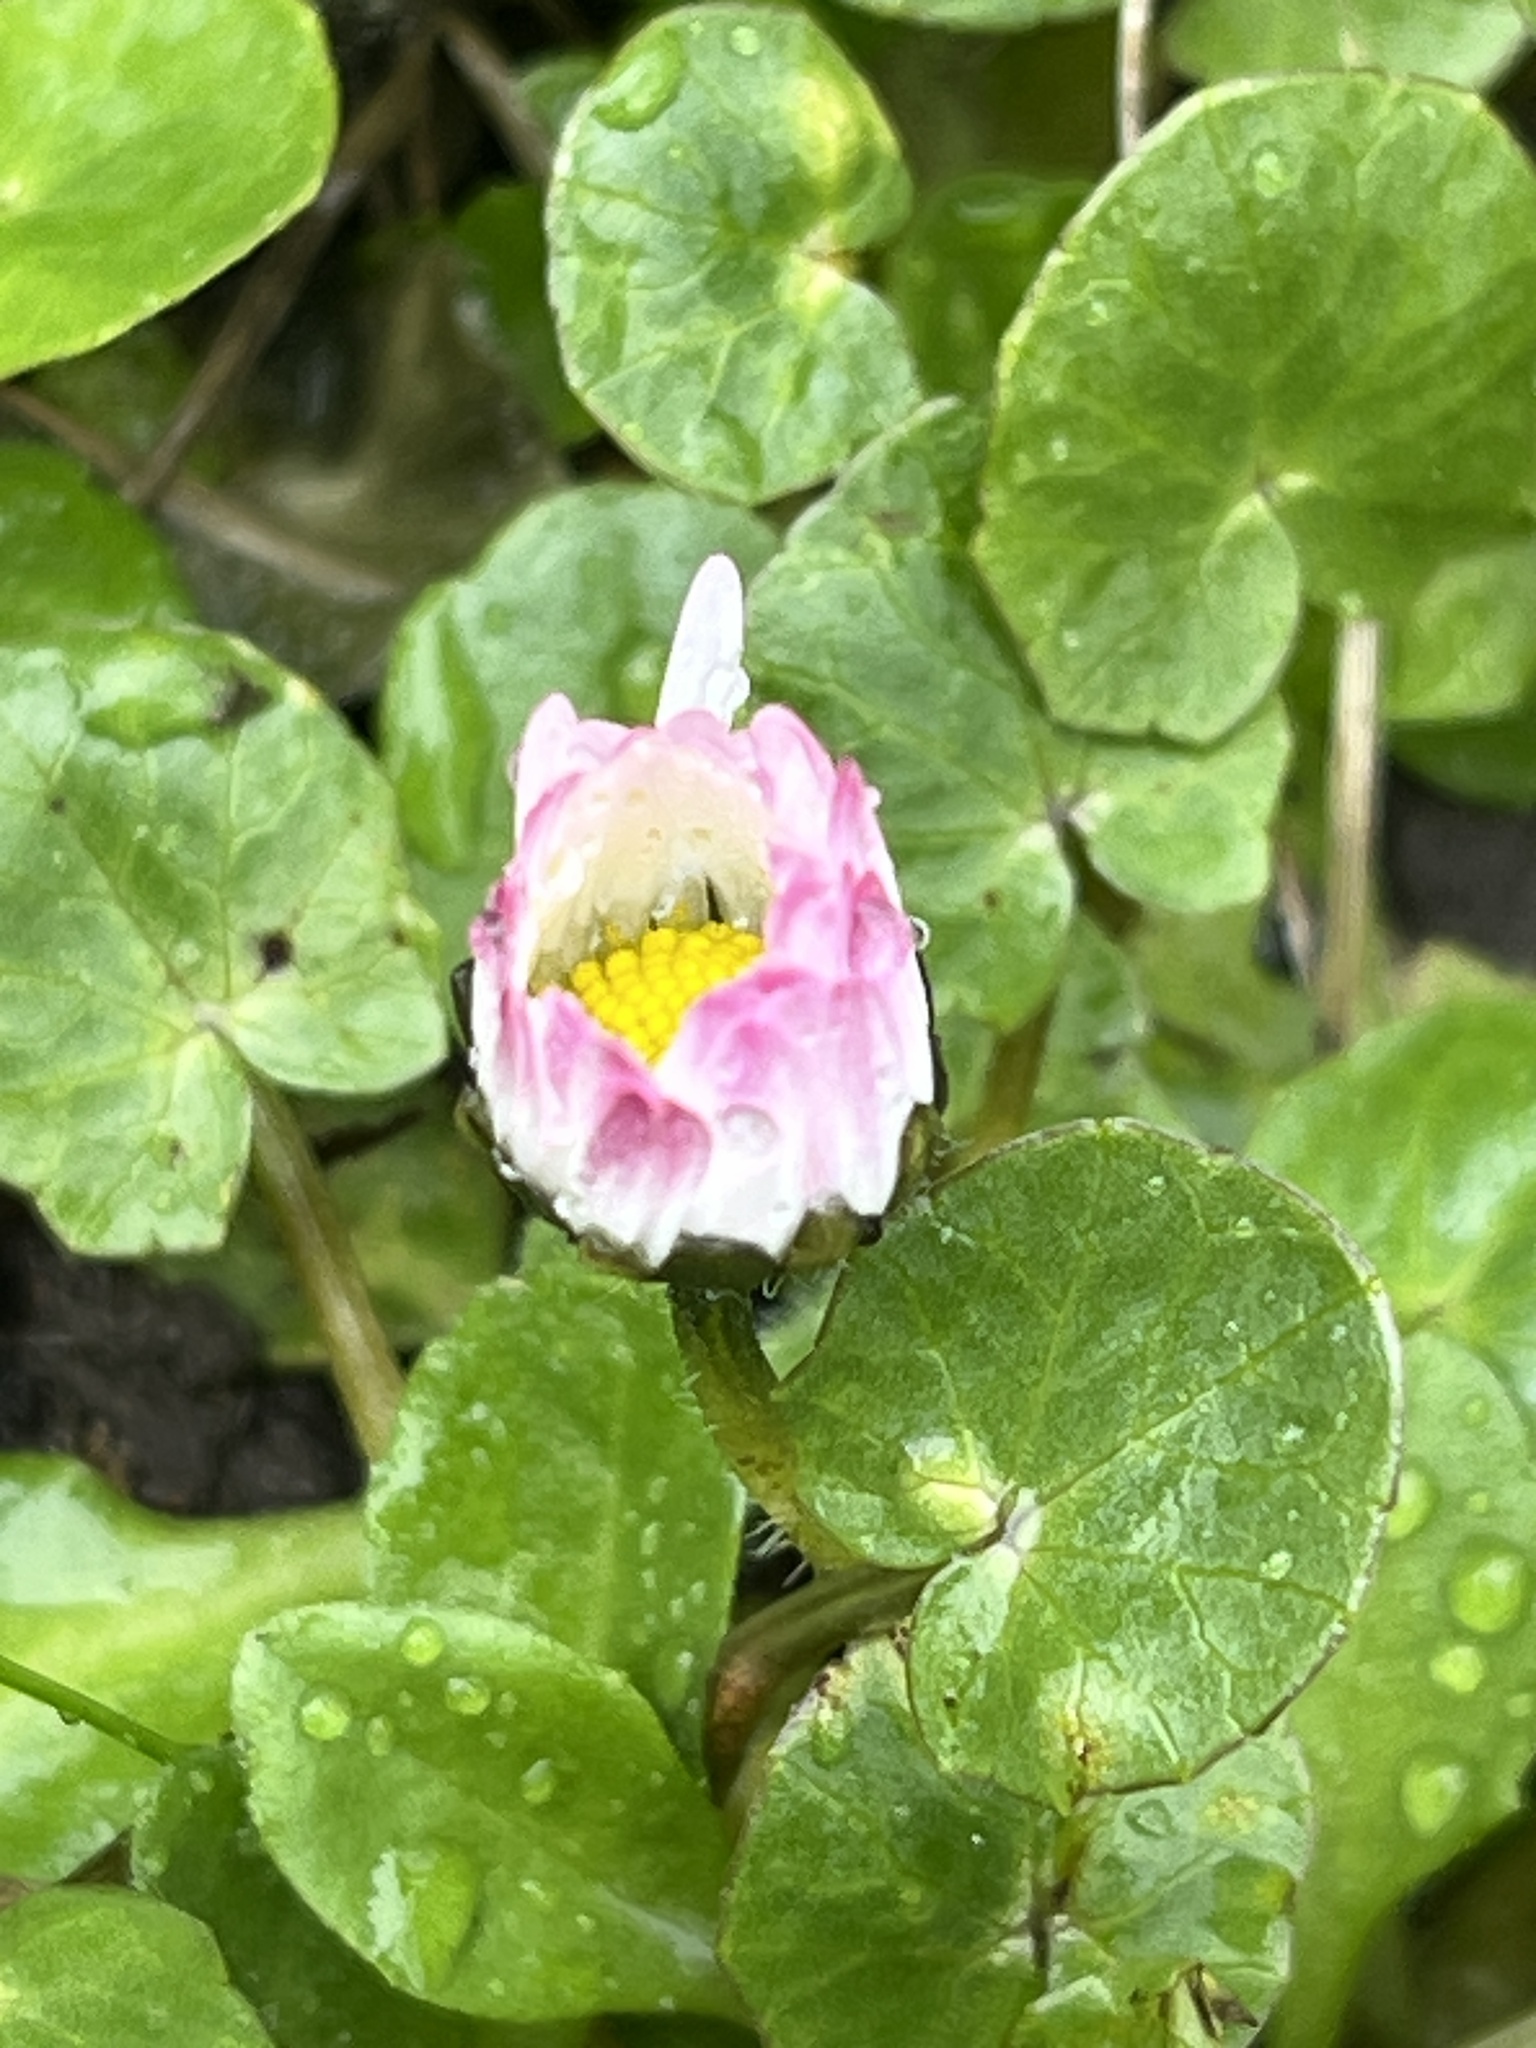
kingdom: Plantae
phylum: Tracheophyta
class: Magnoliopsida
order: Asterales
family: Asteraceae
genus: Bellis
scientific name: Bellis perennis
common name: Lawndaisy
